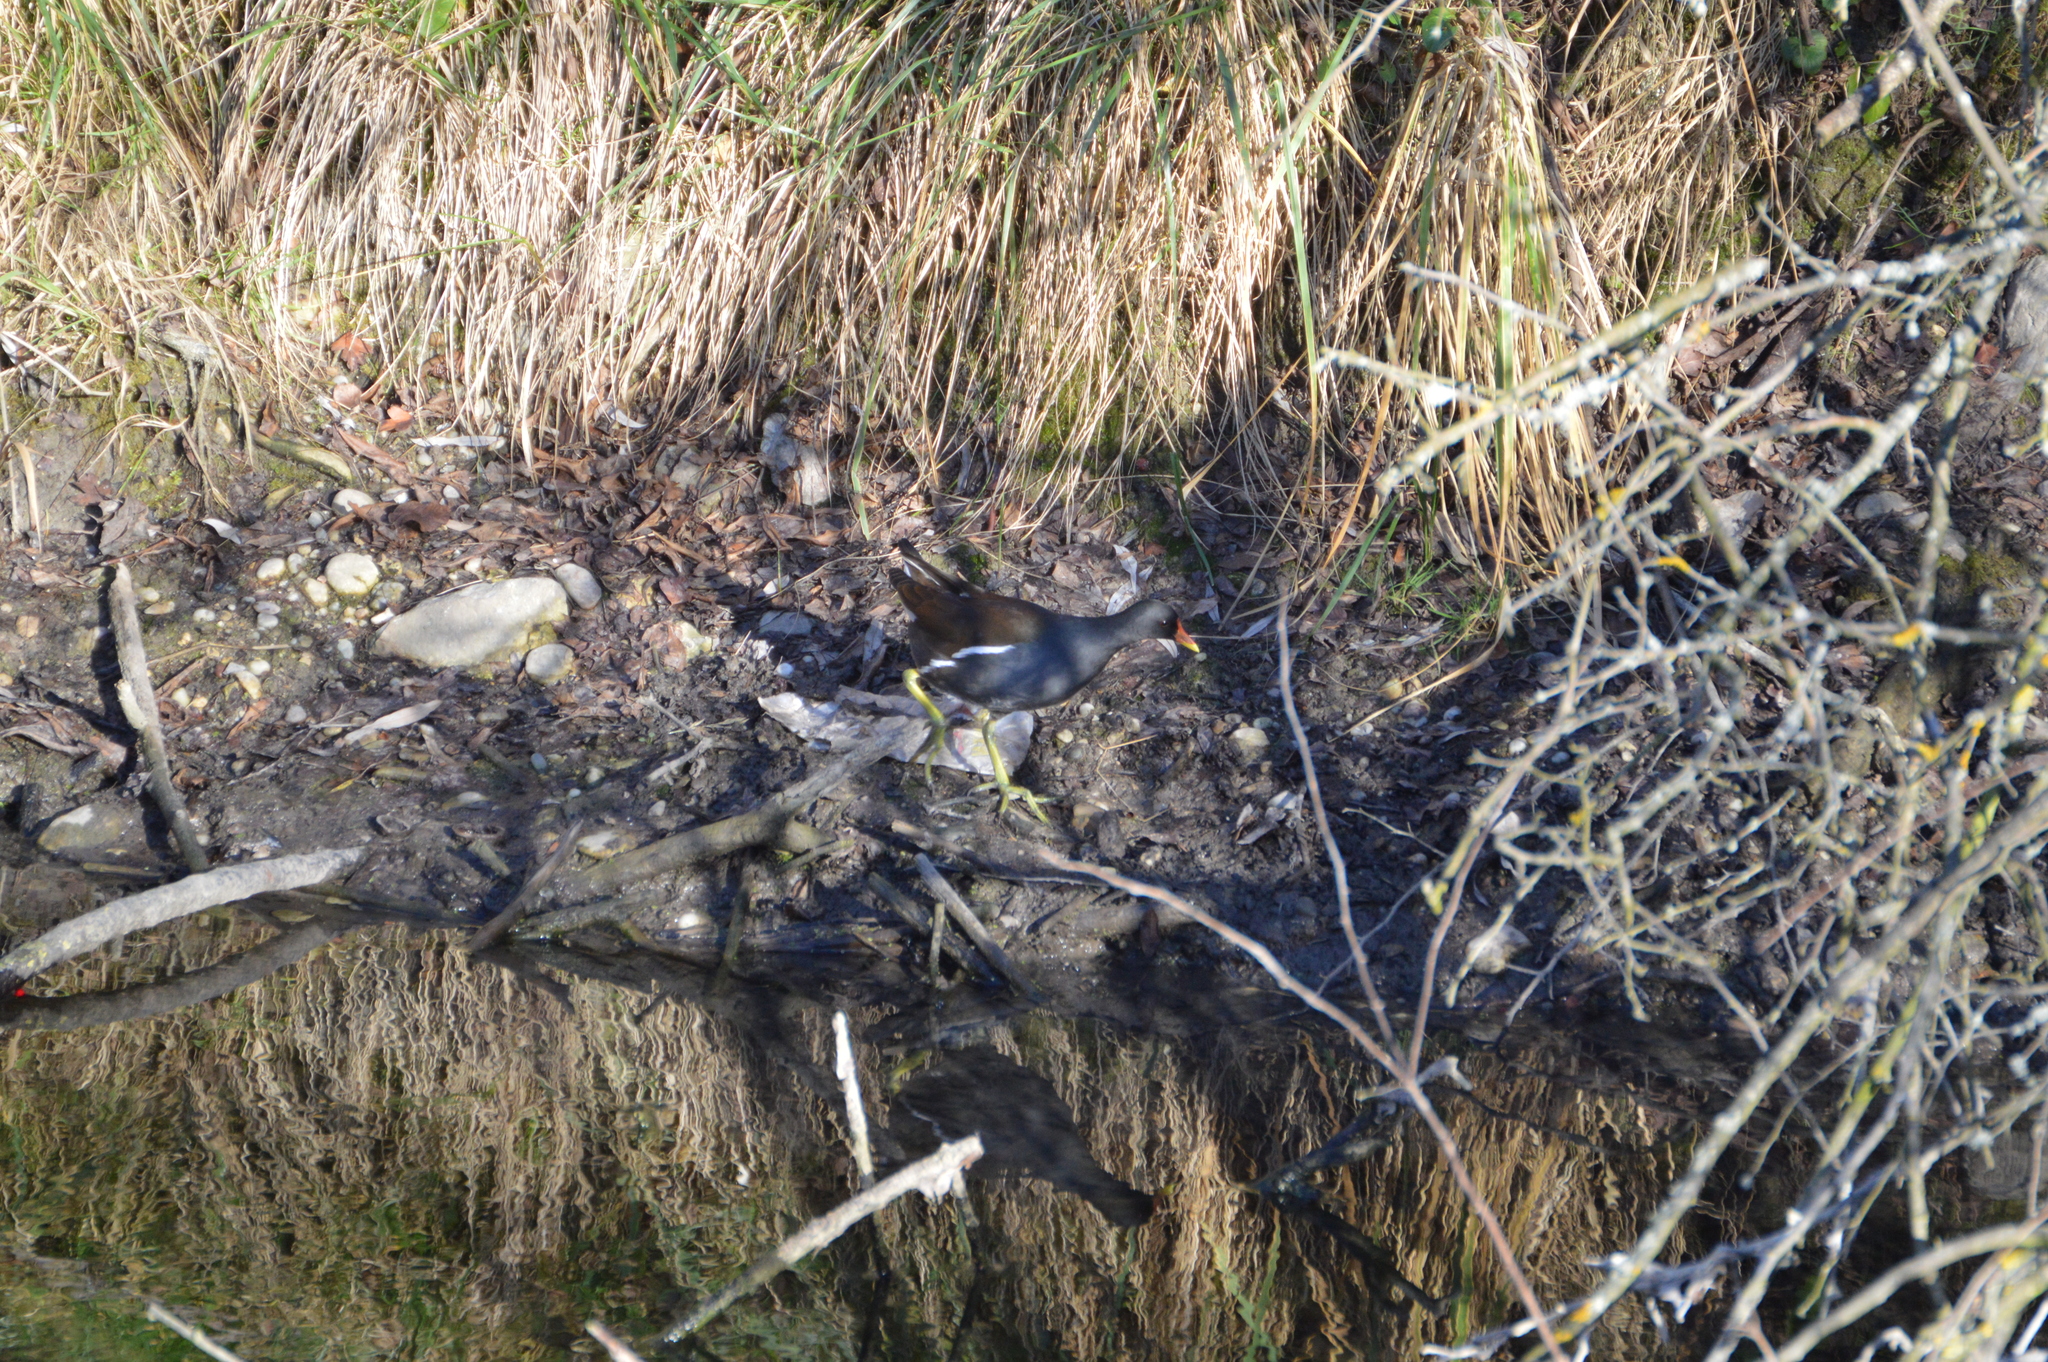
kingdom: Animalia
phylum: Chordata
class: Aves
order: Gruiformes
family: Rallidae
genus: Gallinula
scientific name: Gallinula chloropus
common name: Common moorhen
